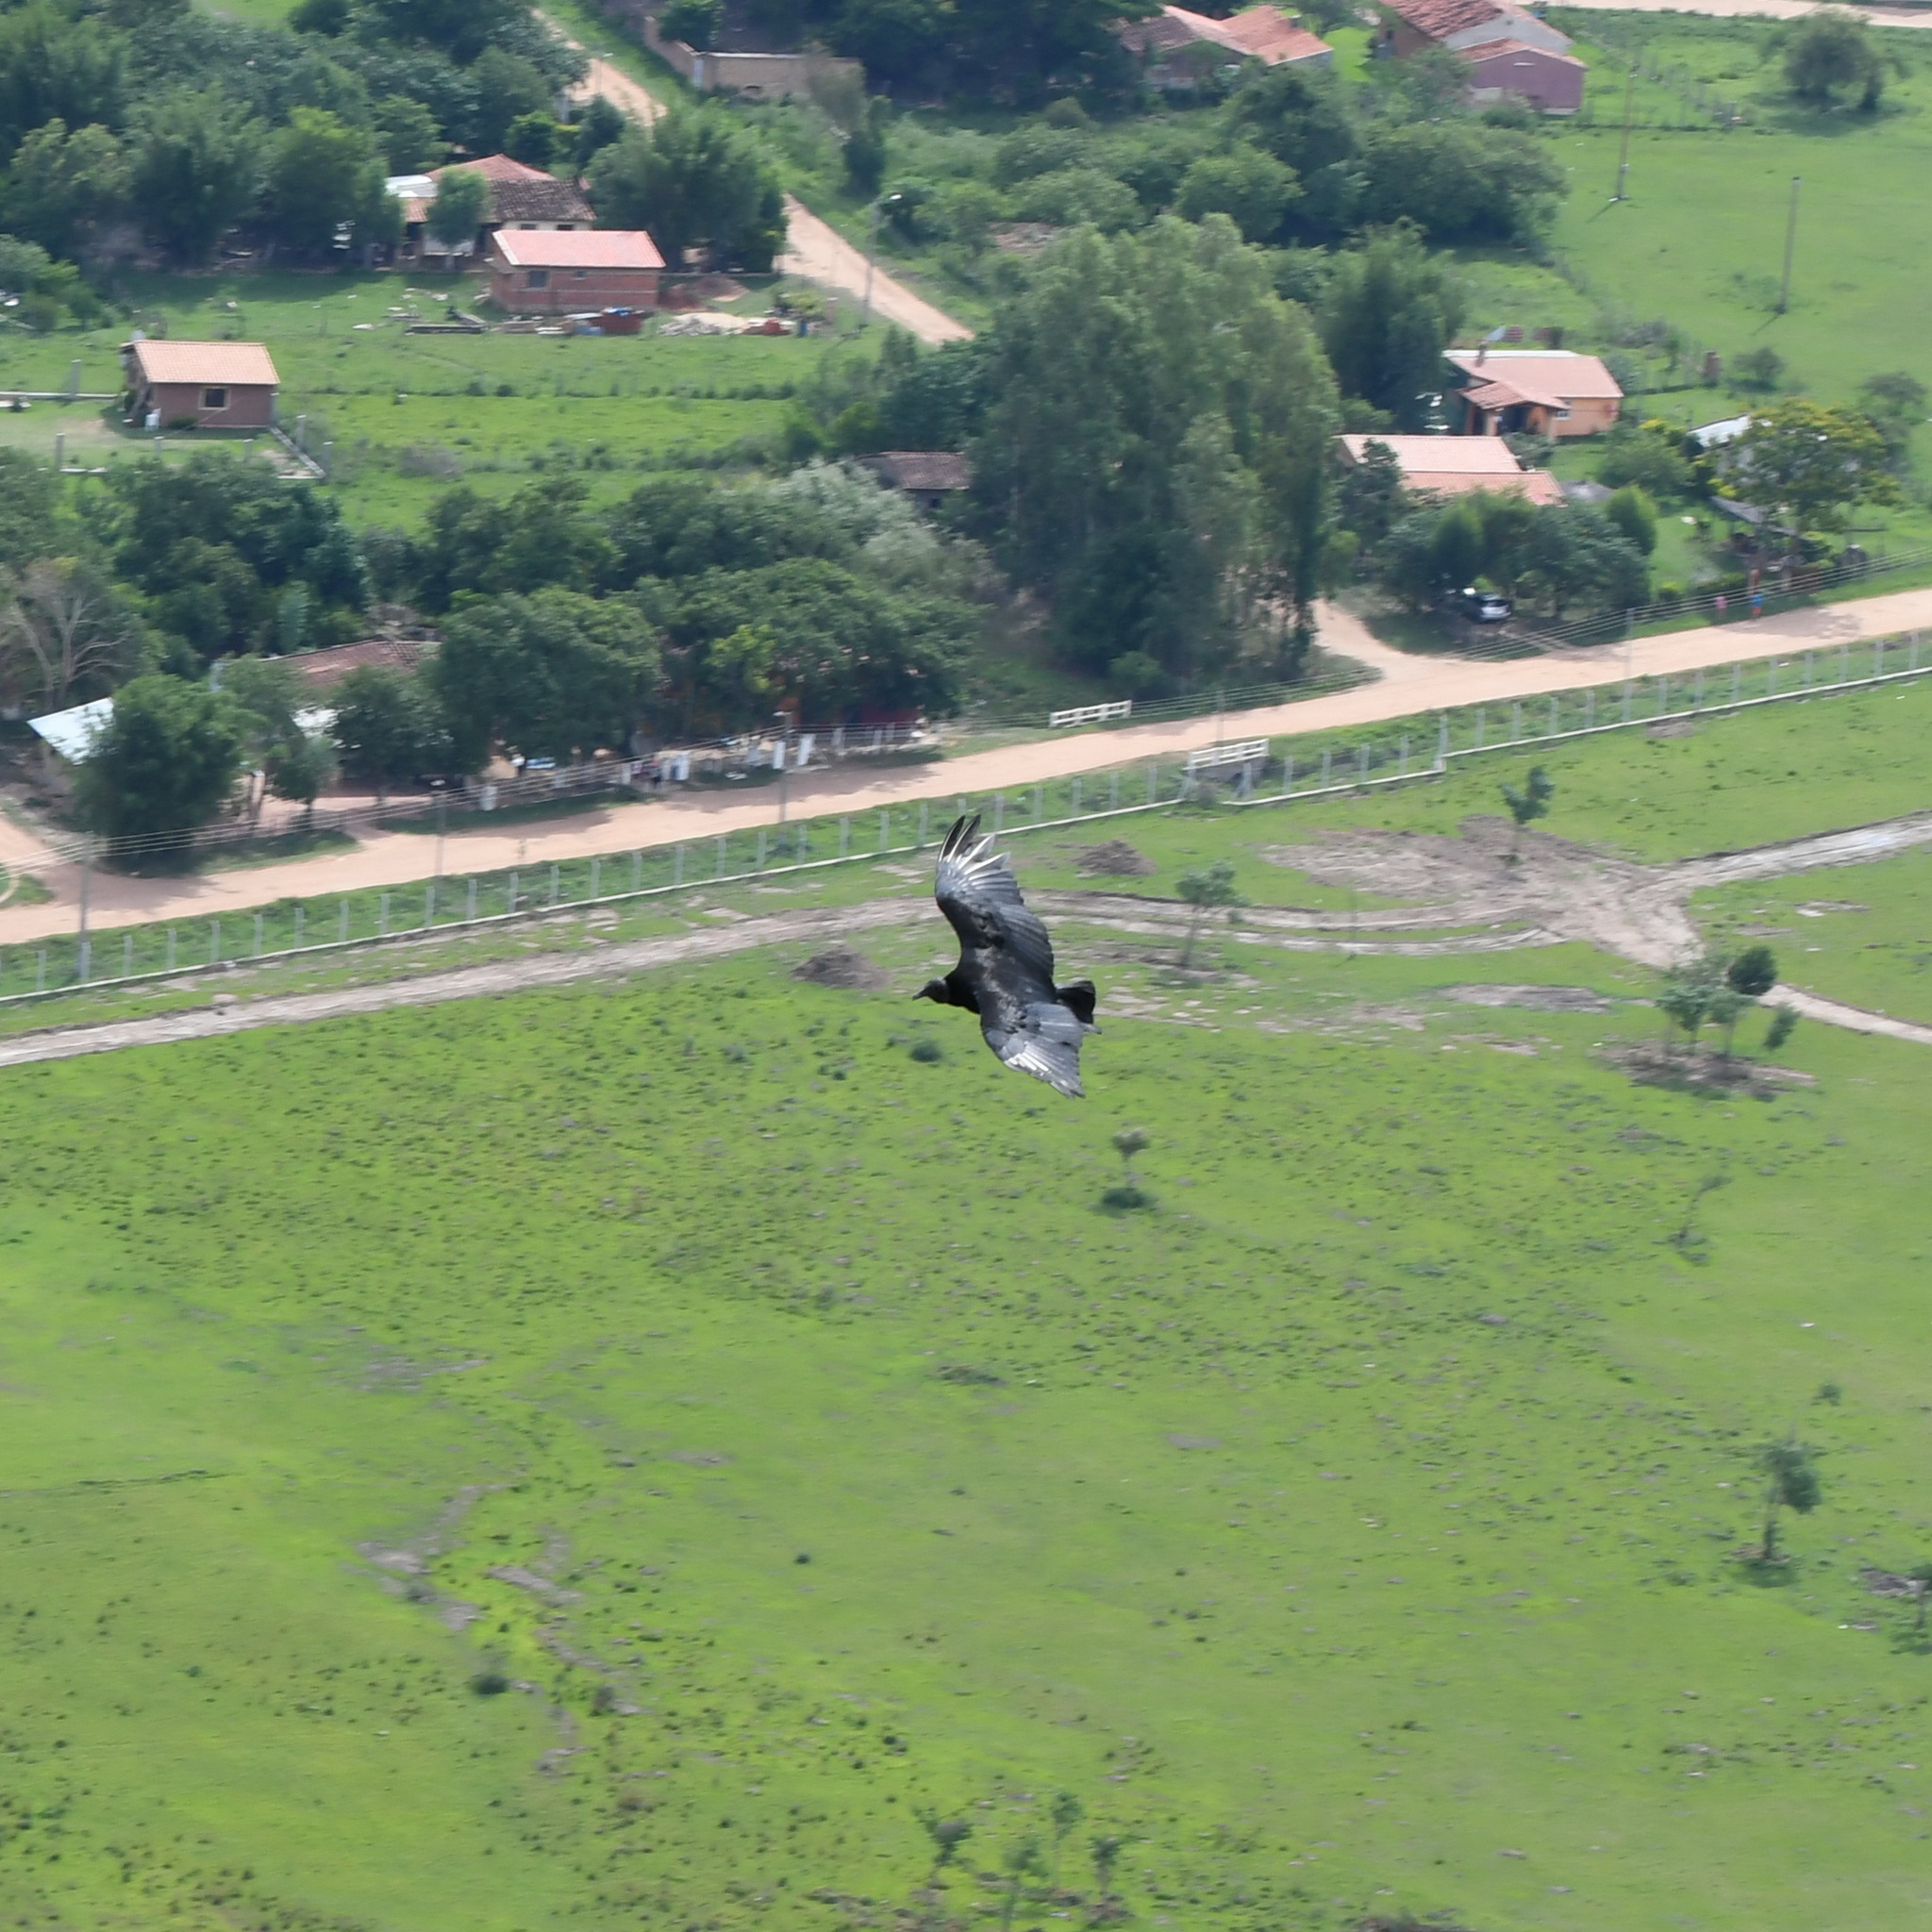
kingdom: Animalia
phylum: Chordata
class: Aves
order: Accipitriformes
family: Cathartidae
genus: Coragyps
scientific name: Coragyps atratus
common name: Black vulture
